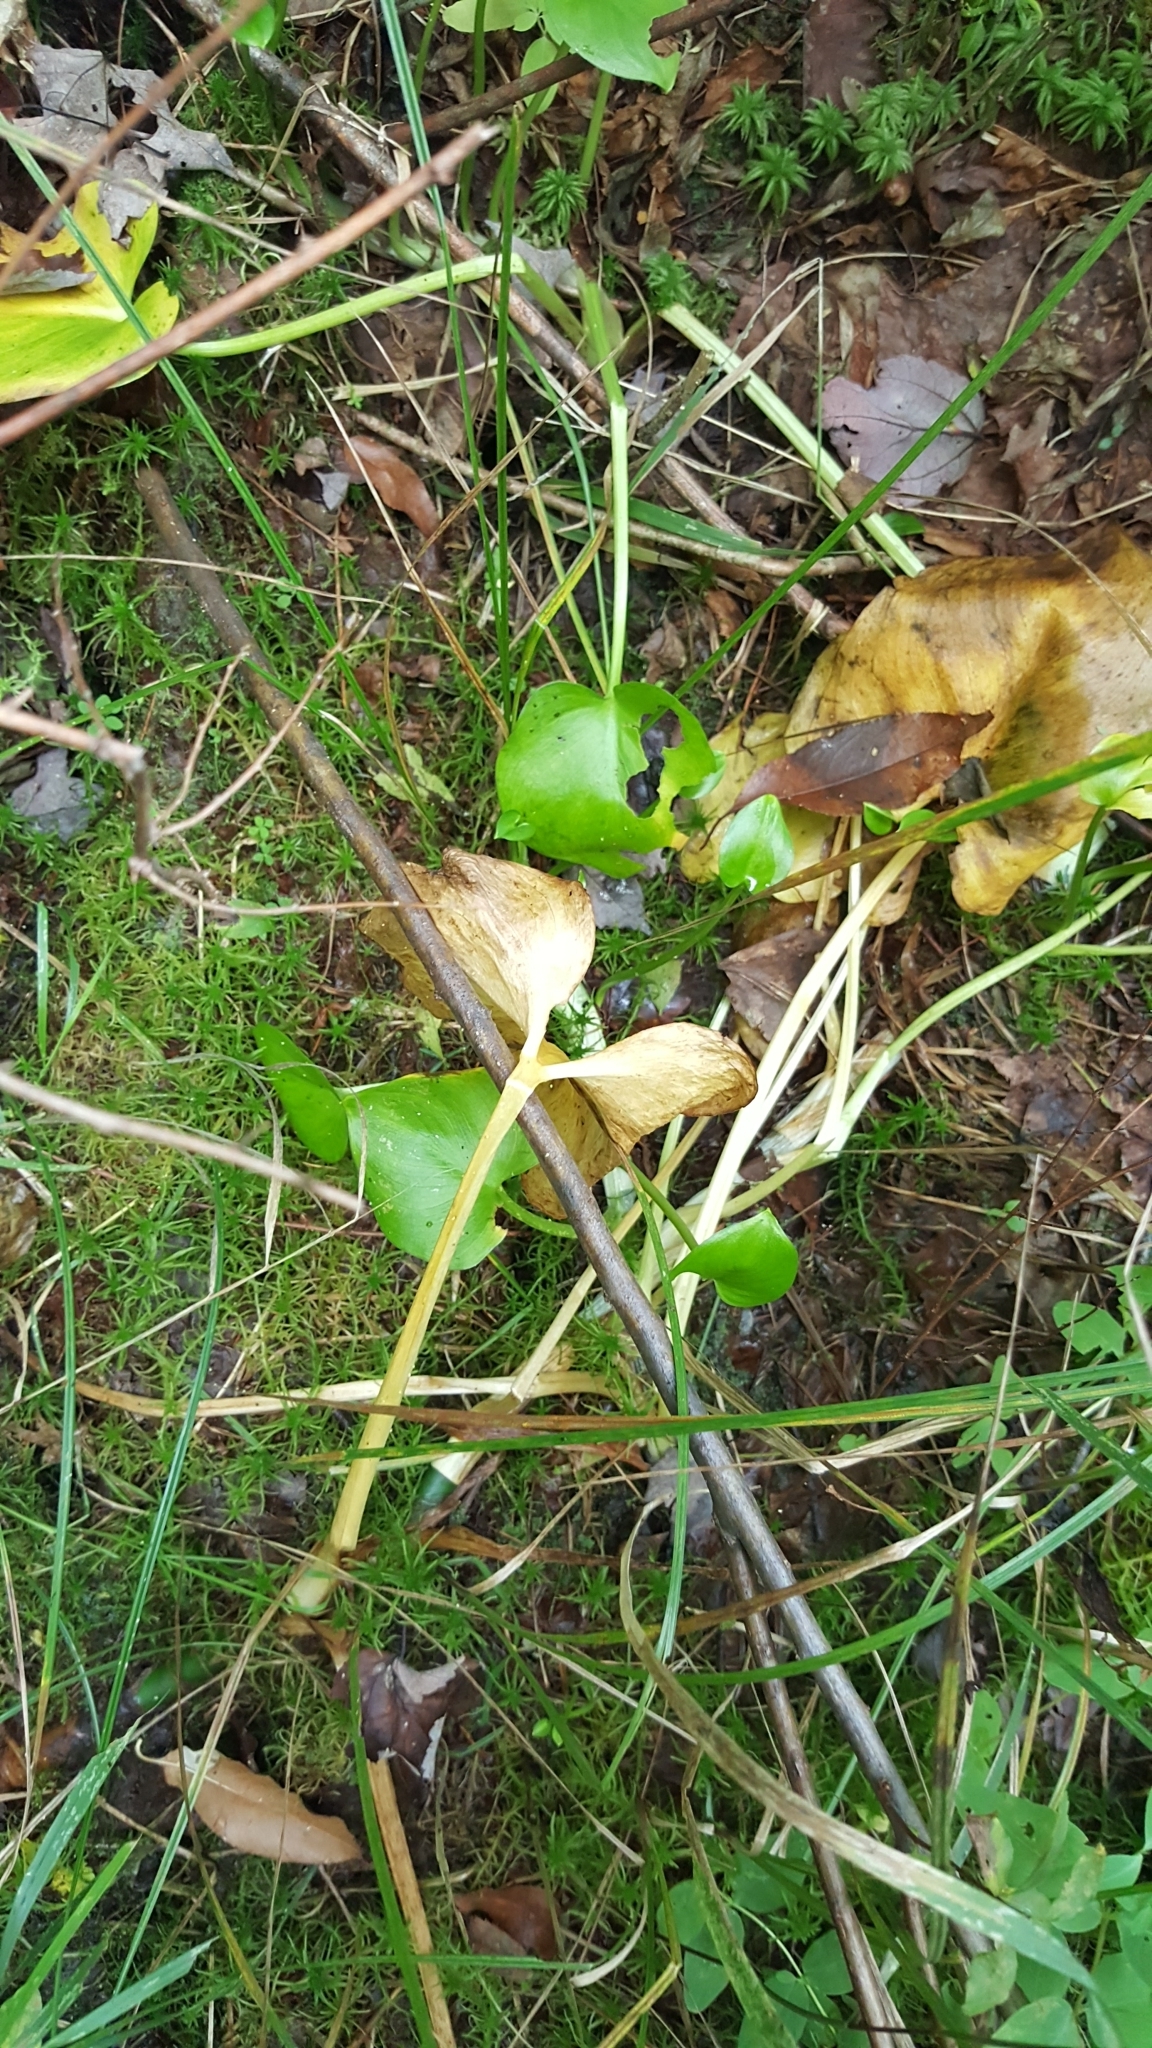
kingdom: Plantae
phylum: Tracheophyta
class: Liliopsida
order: Alismatales
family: Araceae
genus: Calla
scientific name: Calla palustris
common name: Bog arum
